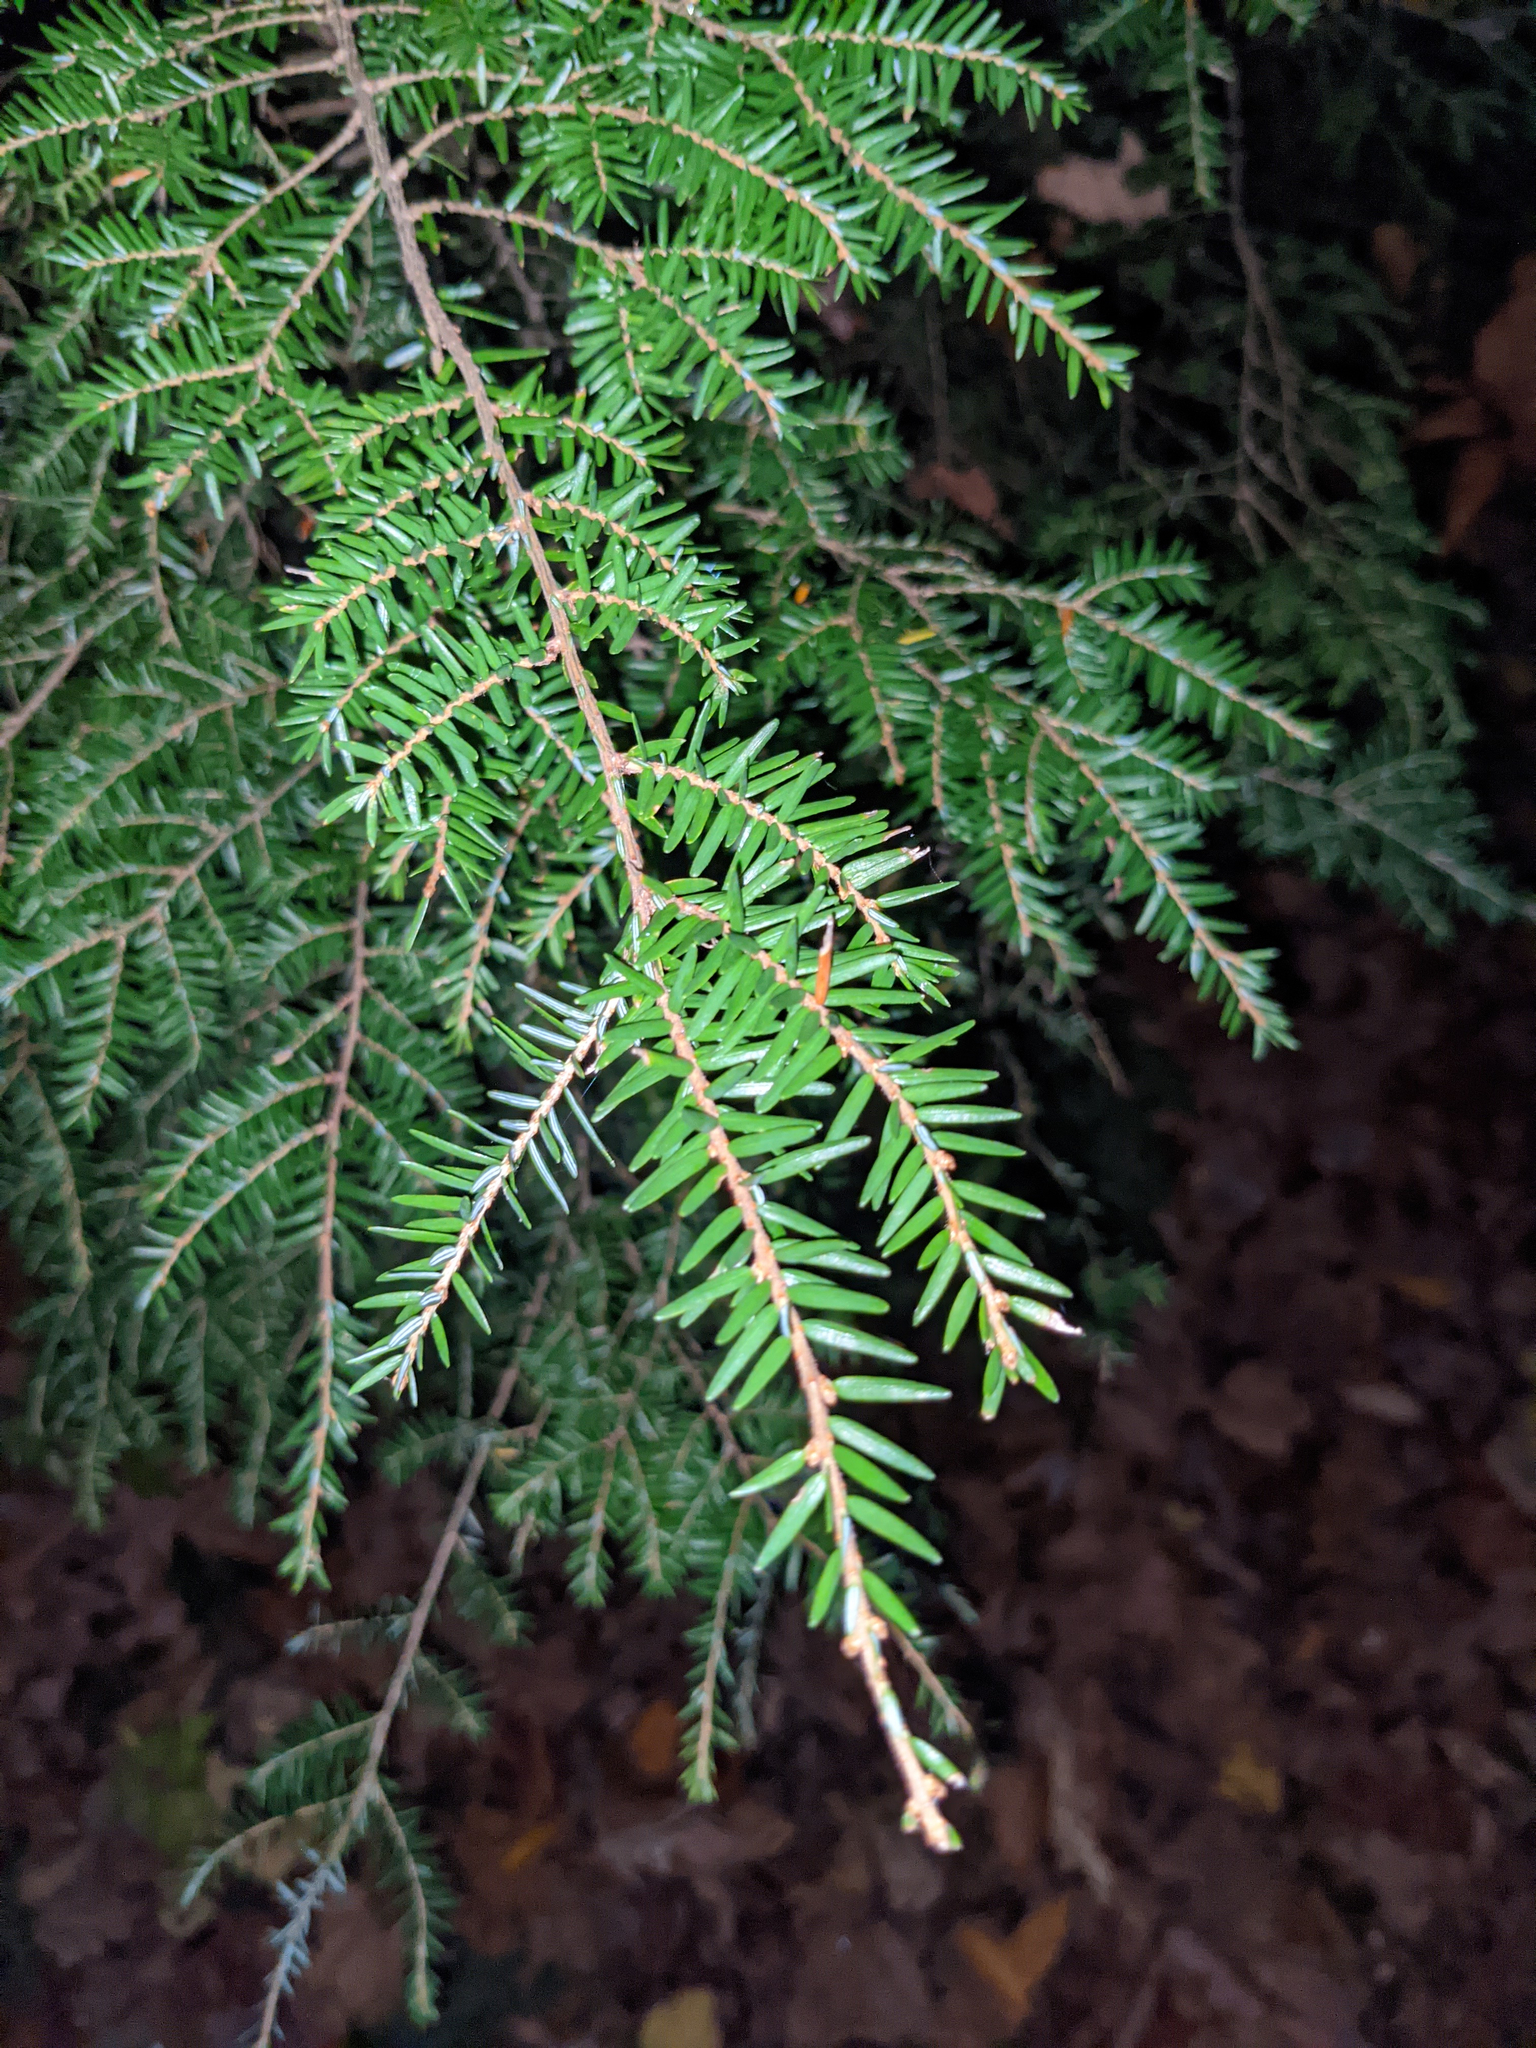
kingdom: Plantae
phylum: Tracheophyta
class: Pinopsida
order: Pinales
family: Pinaceae
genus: Tsuga
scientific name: Tsuga canadensis
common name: Eastern hemlock
